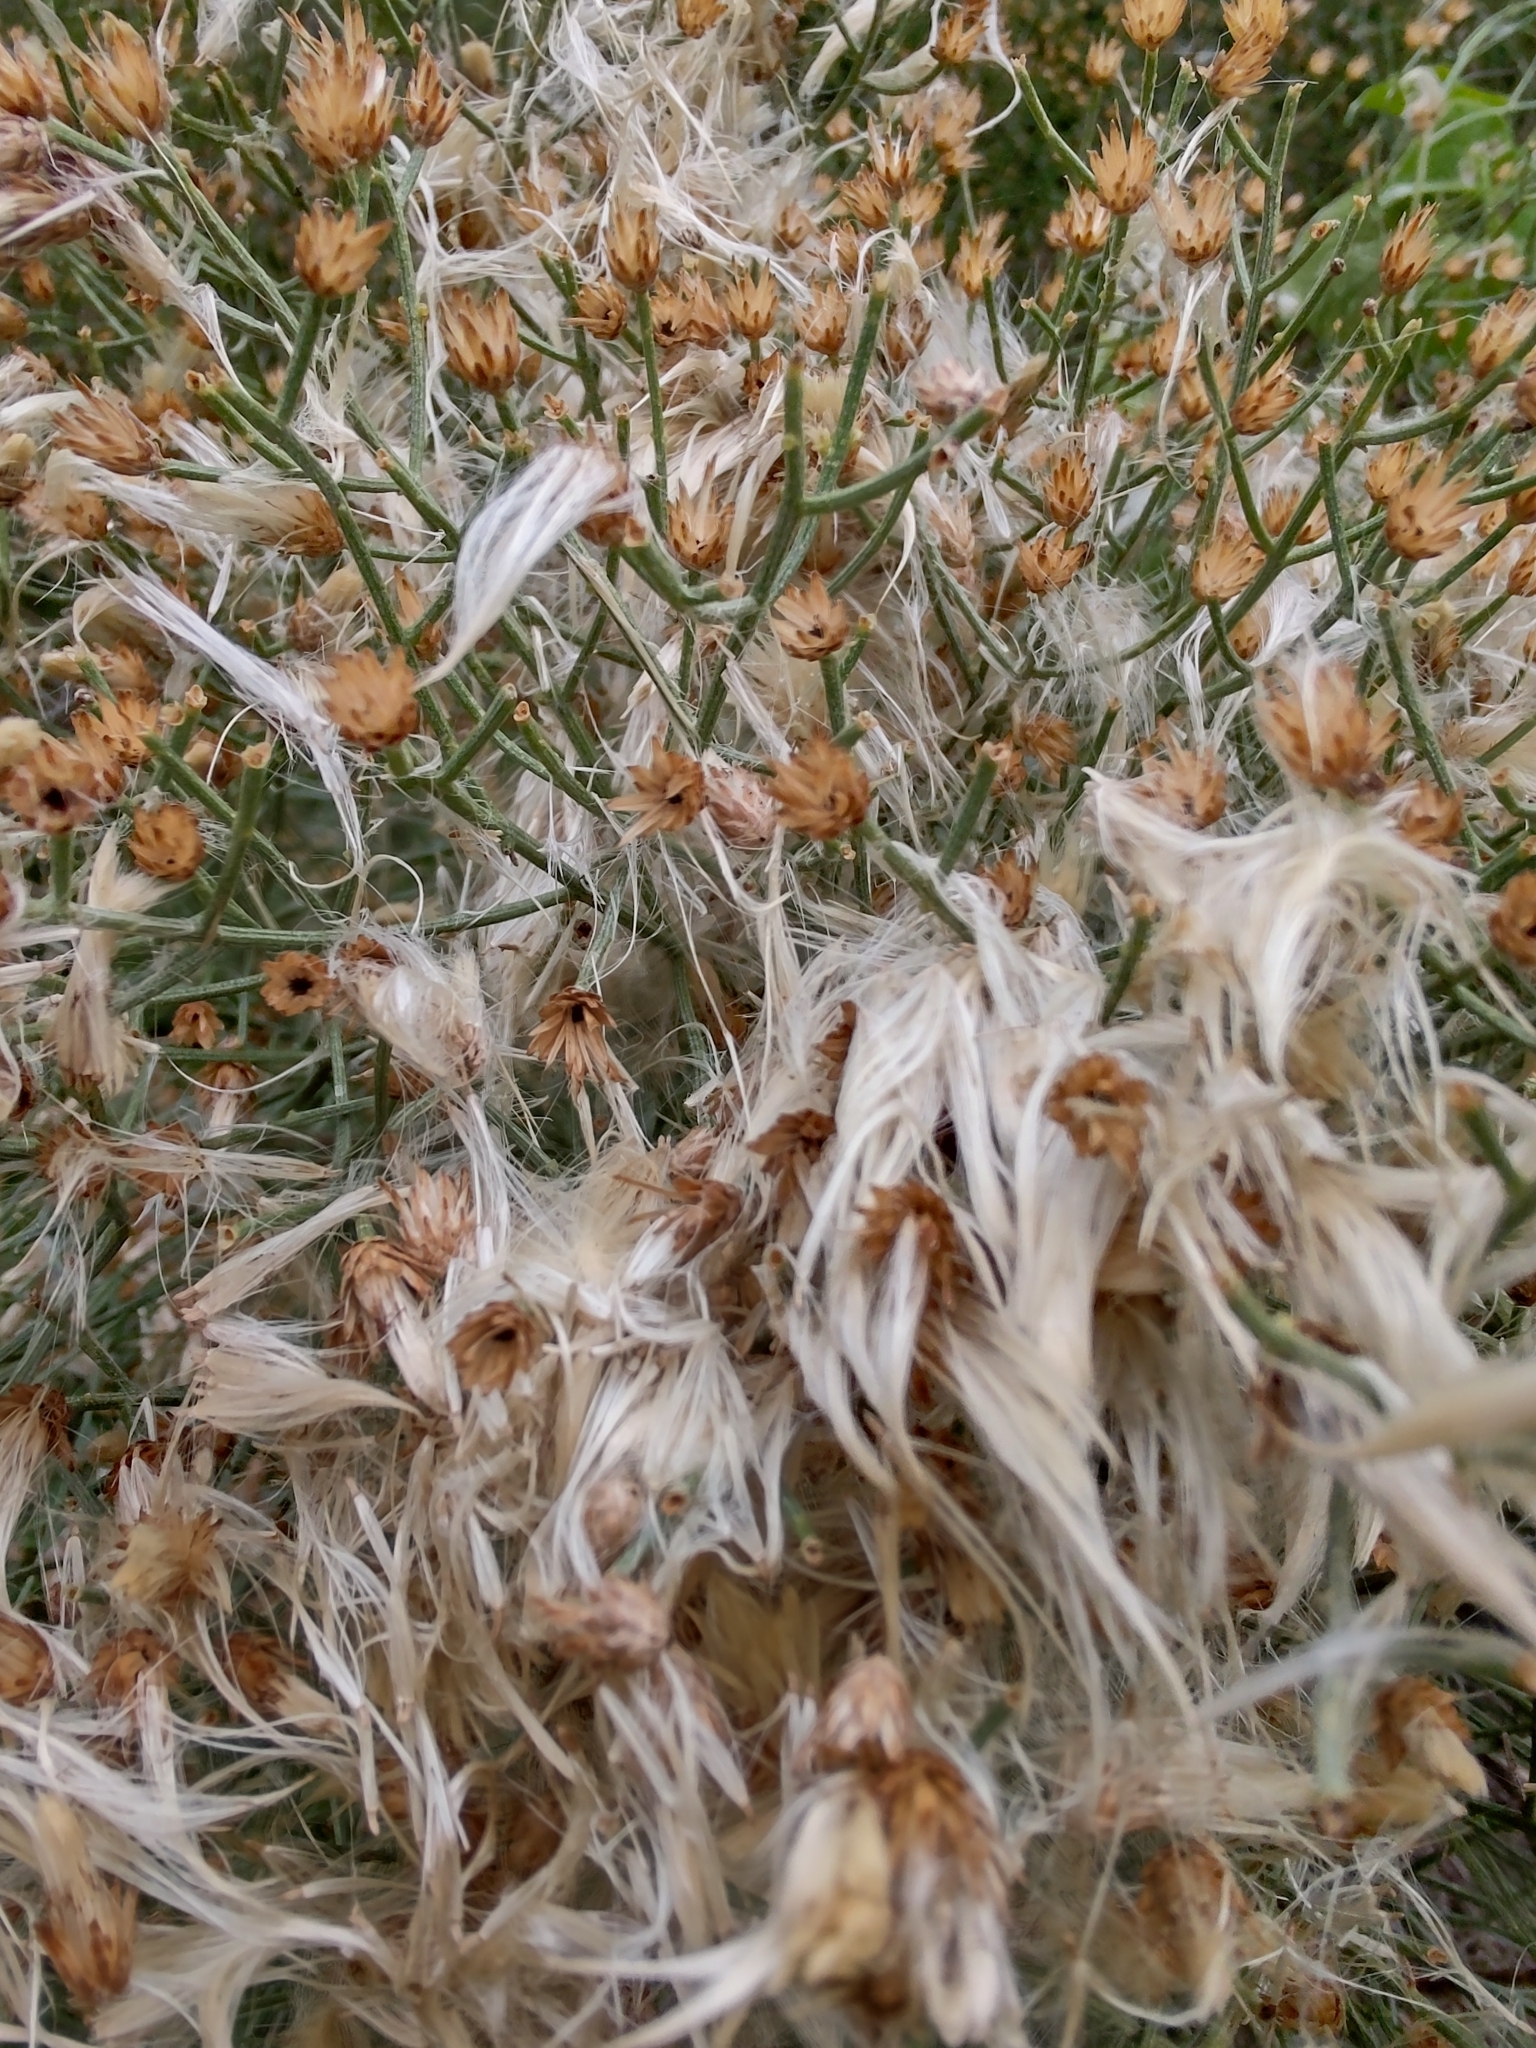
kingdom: Plantae
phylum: Tracheophyta
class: Magnoliopsida
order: Asterales
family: Asteraceae
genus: Baccharis
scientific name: Baccharis notosergila
